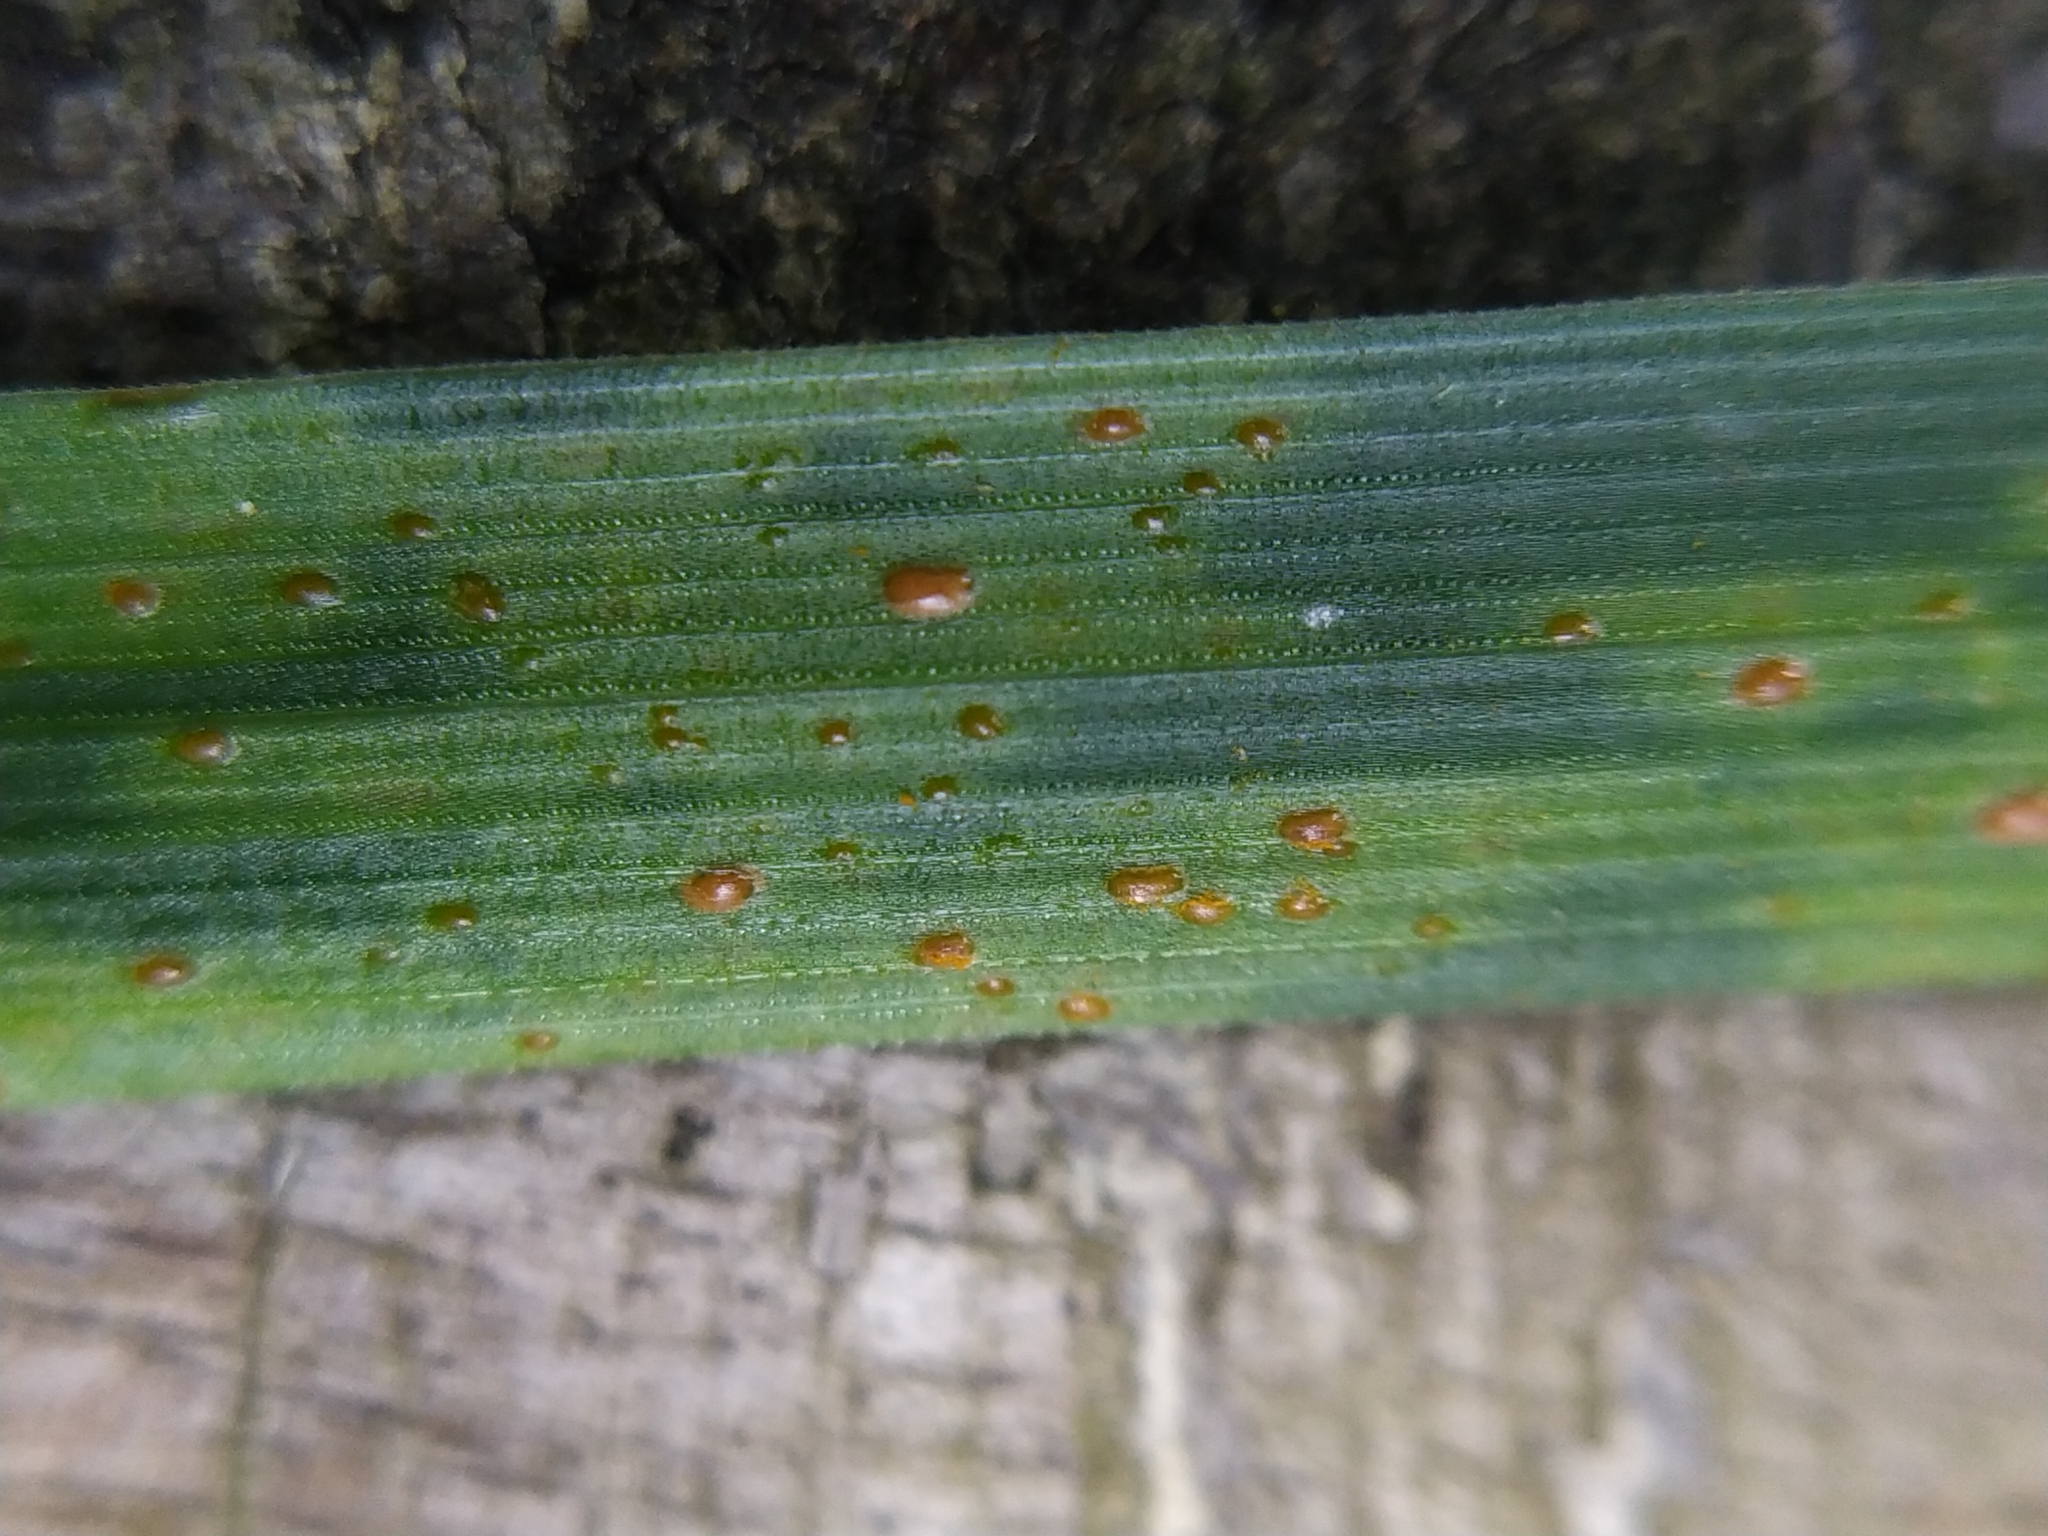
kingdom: Fungi
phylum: Basidiomycota
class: Pucciniomycetes
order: Pucciniales
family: Pucciniaceae
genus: Puccinia
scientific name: Puccinia coronata
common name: Crown rust
